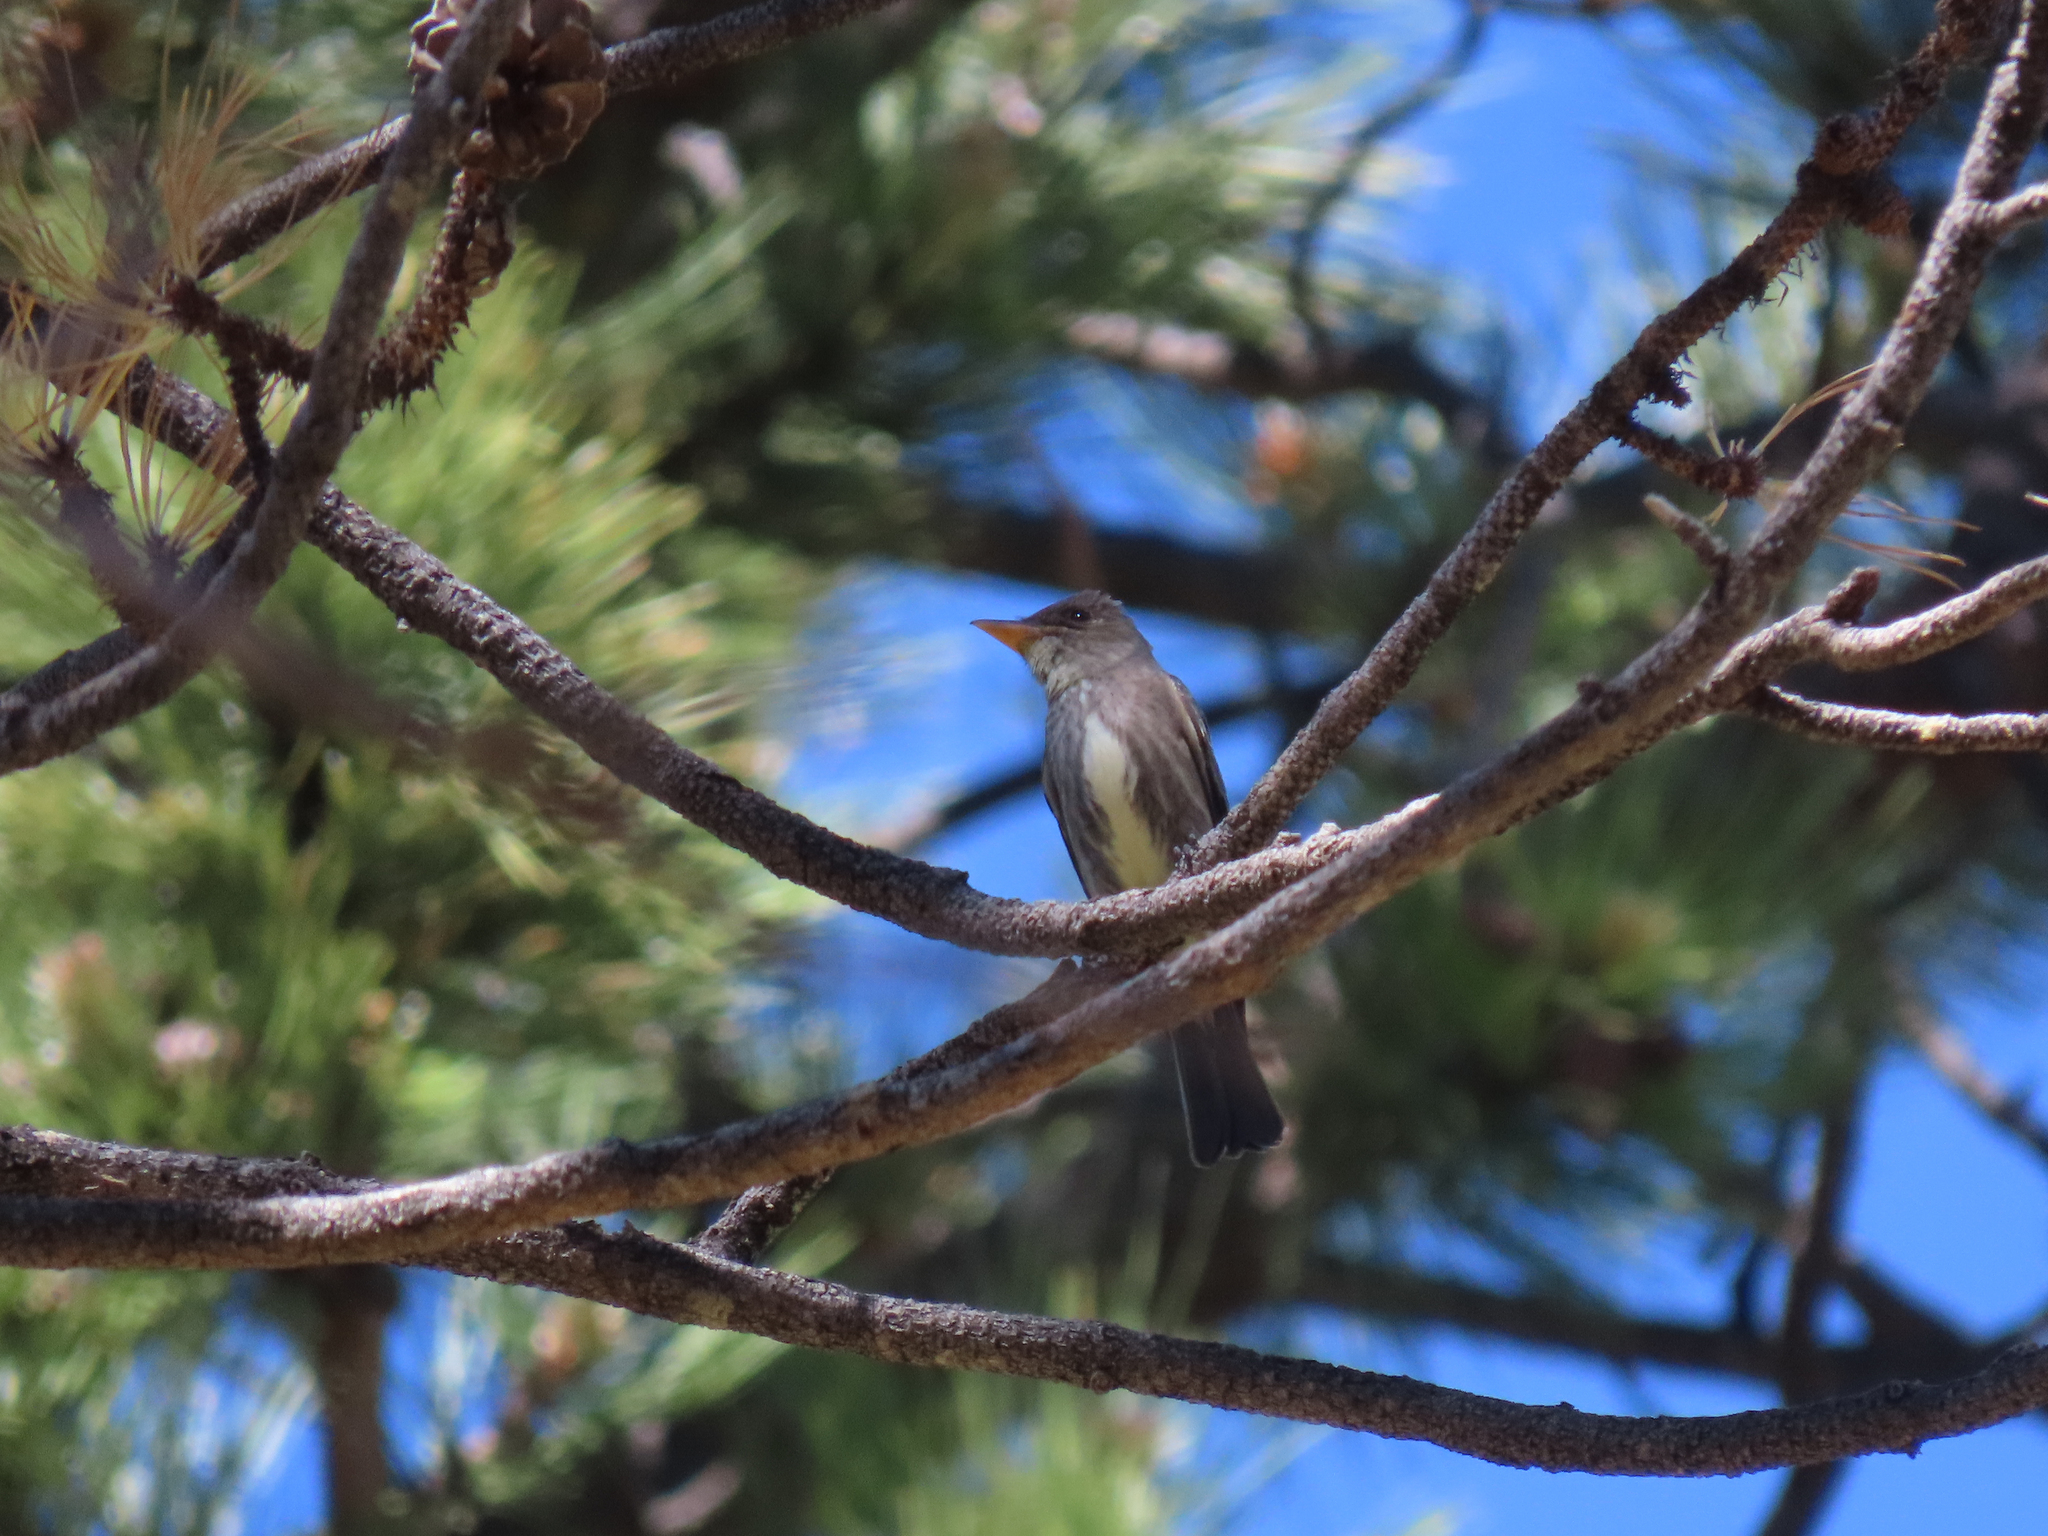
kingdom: Animalia
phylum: Chordata
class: Aves
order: Passeriformes
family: Tyrannidae
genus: Contopus
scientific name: Contopus cooperi
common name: Olive-sided flycatcher
